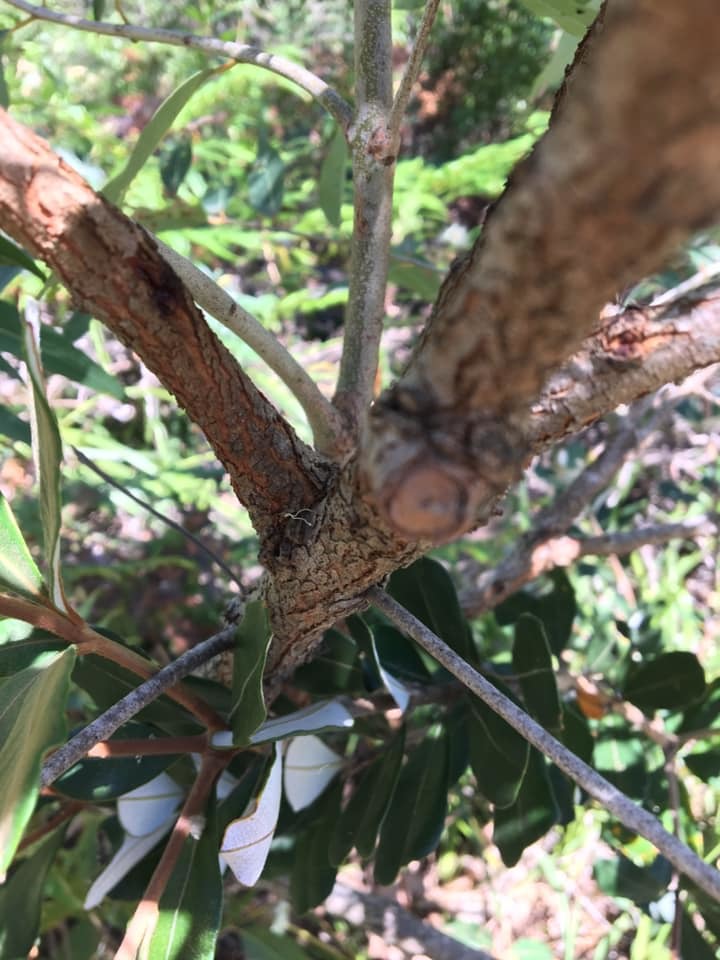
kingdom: Plantae
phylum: Tracheophyta
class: Magnoliopsida
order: Myrtales
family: Myrtaceae
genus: Angophora
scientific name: Angophora floribunda
